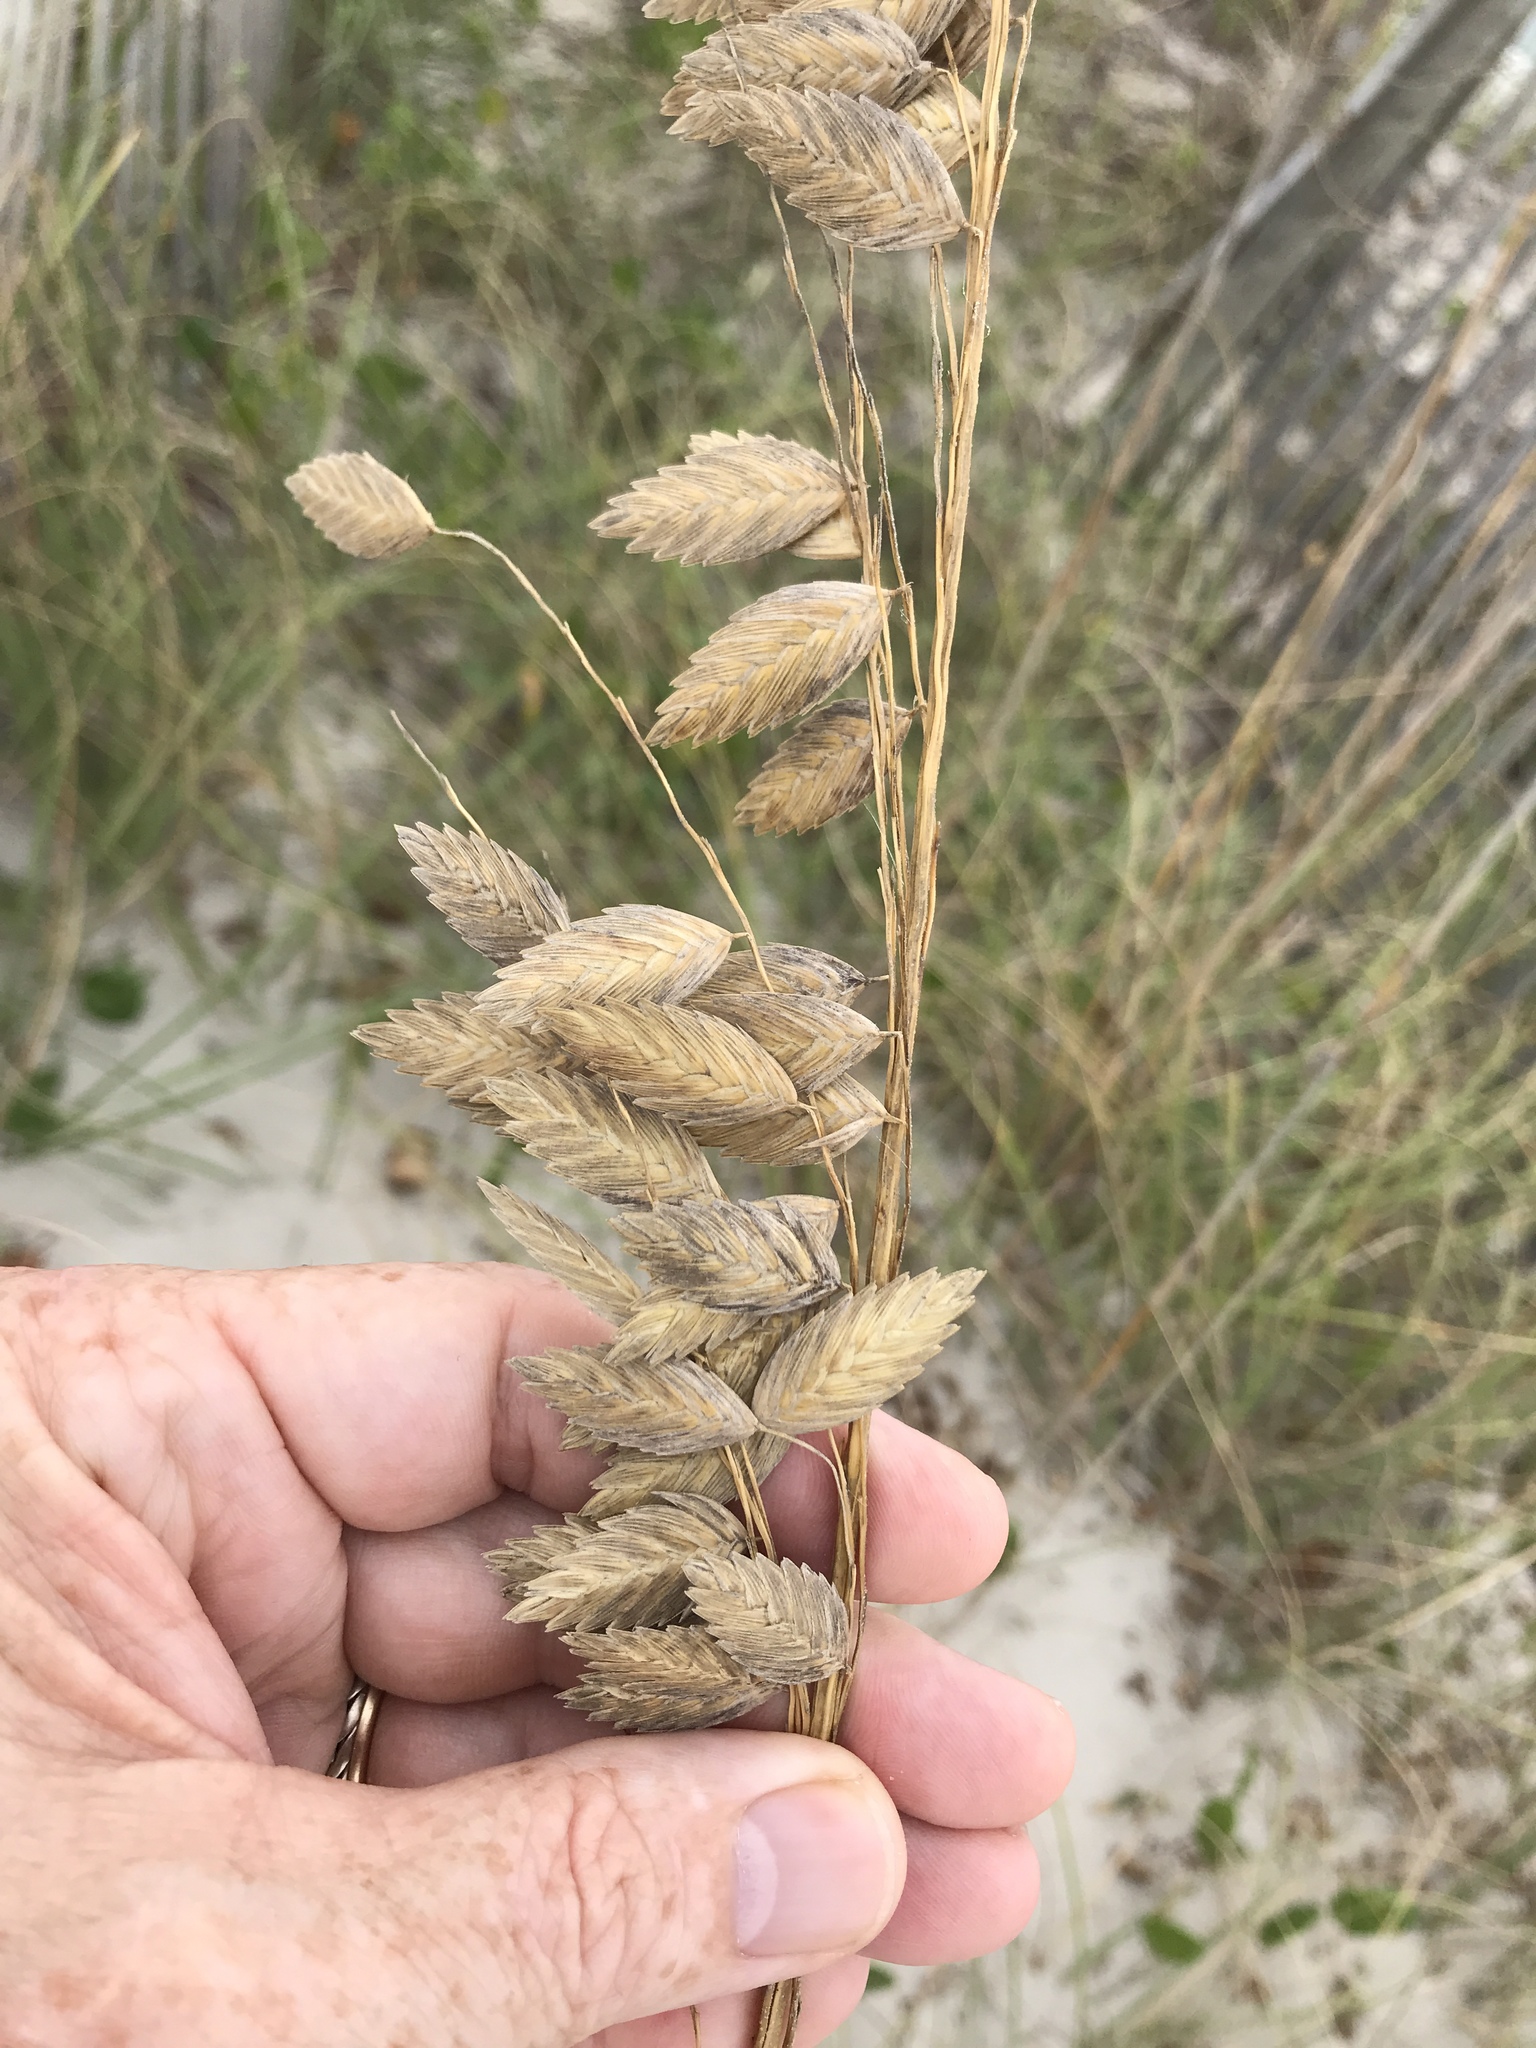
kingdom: Plantae
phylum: Tracheophyta
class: Liliopsida
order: Poales
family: Poaceae
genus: Uniola
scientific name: Uniola paniculata
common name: Seaside-oats
